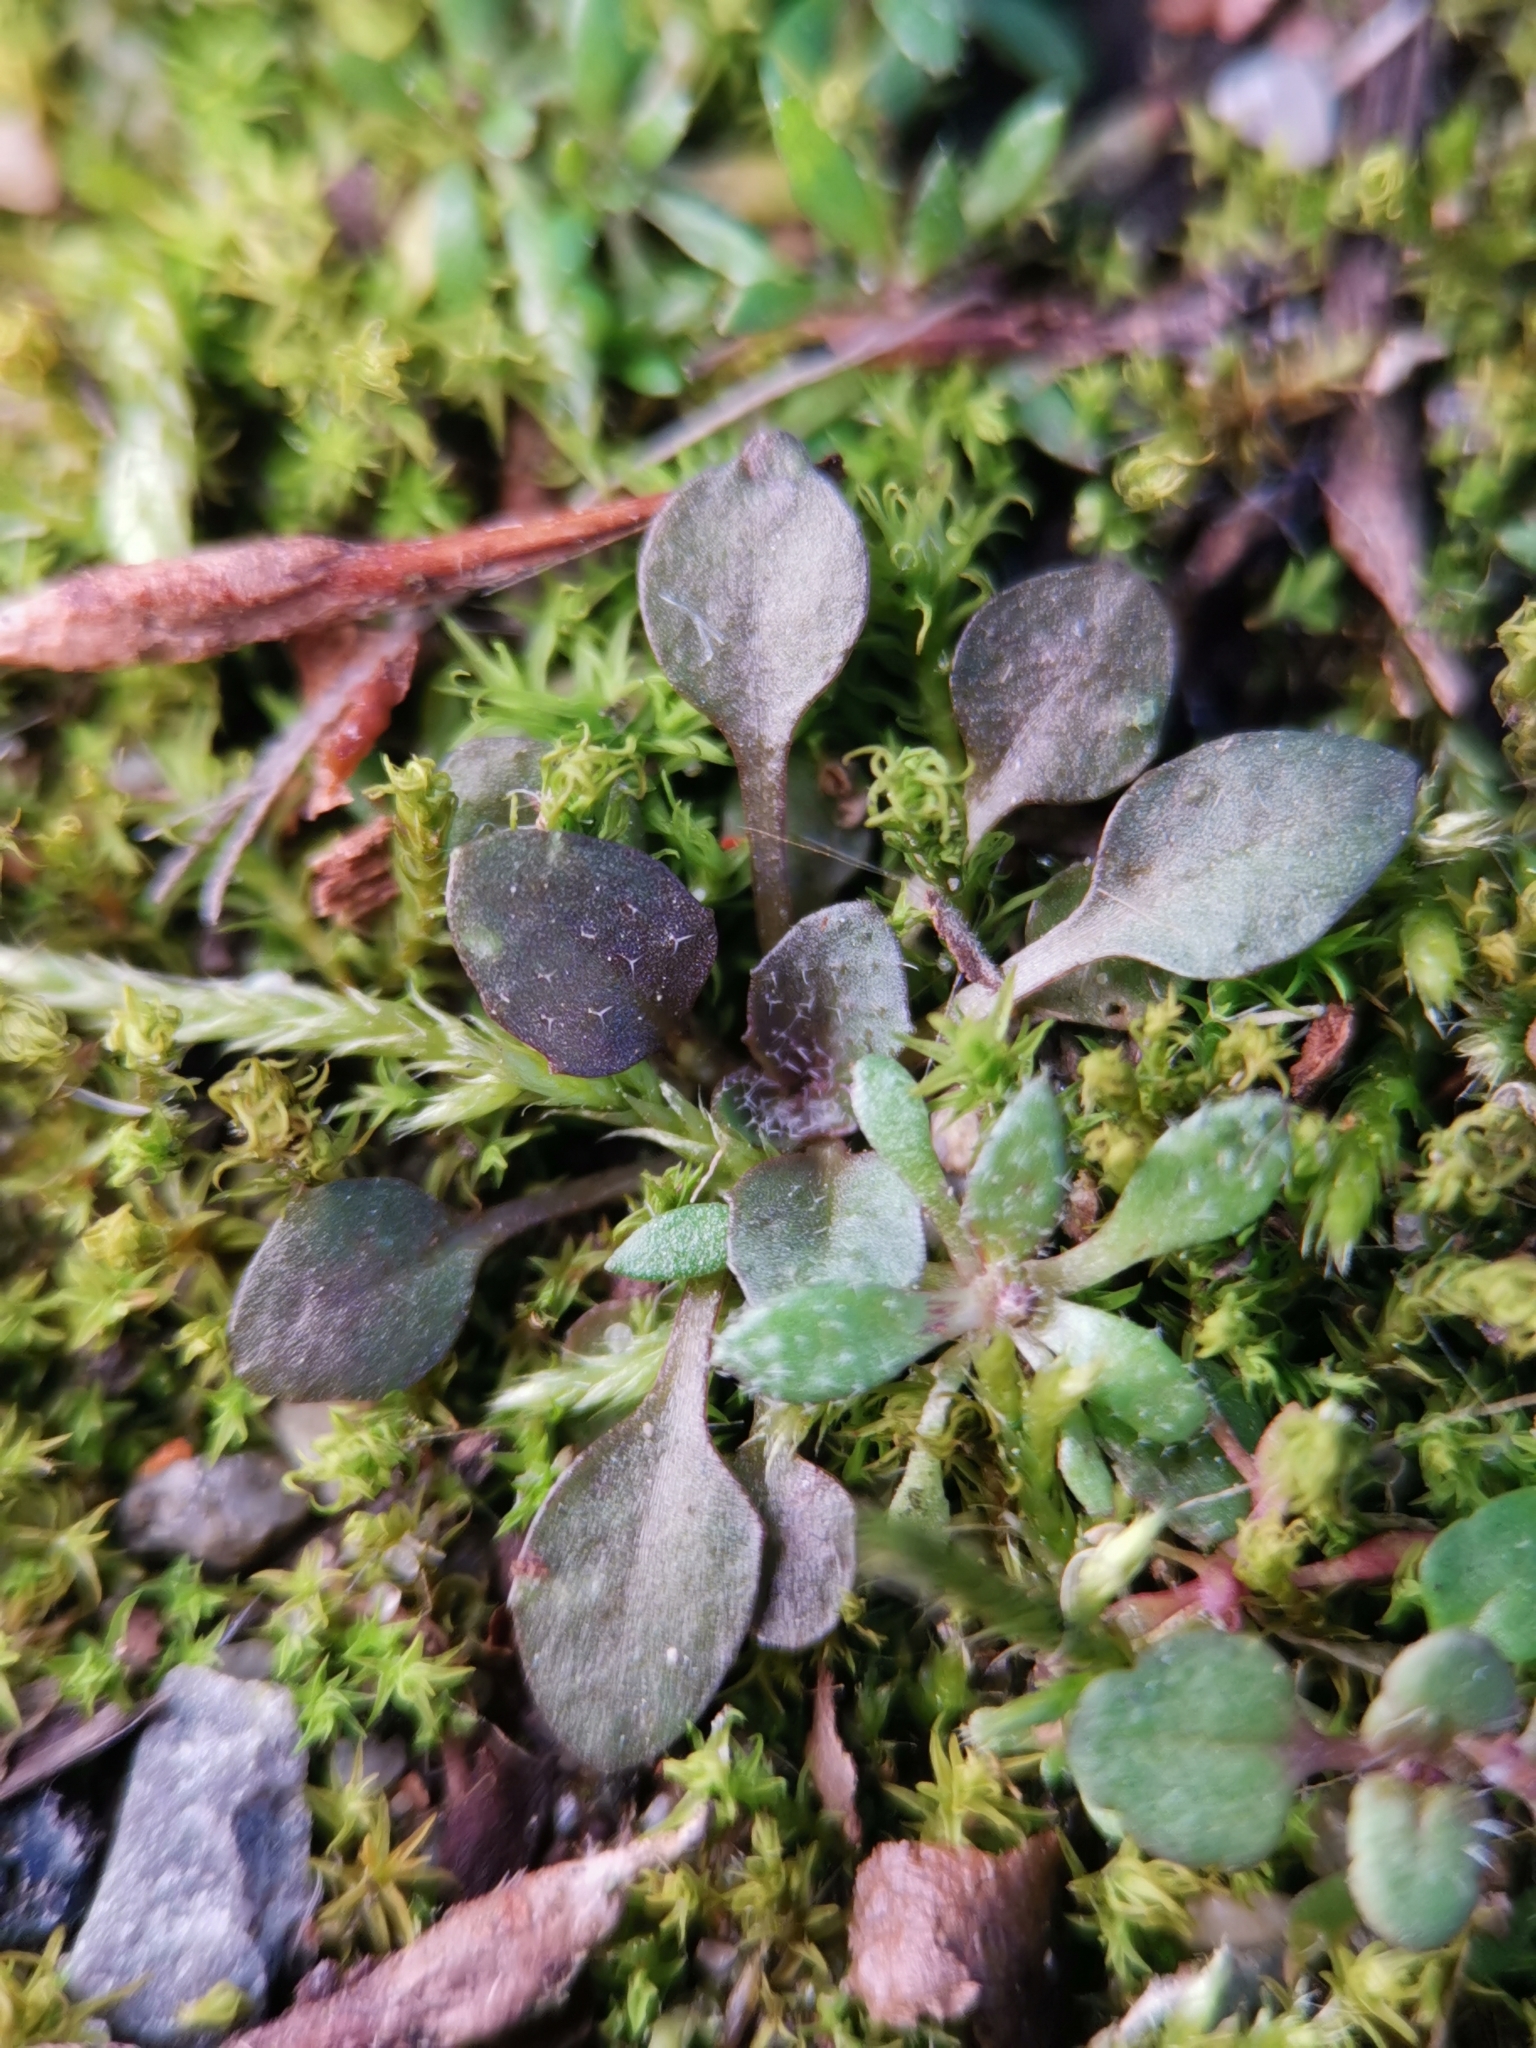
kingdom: Plantae
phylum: Tracheophyta
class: Magnoliopsida
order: Brassicales
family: Brassicaceae
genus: Arabidopsis
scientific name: Arabidopsis thaliana
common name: Thale cress
